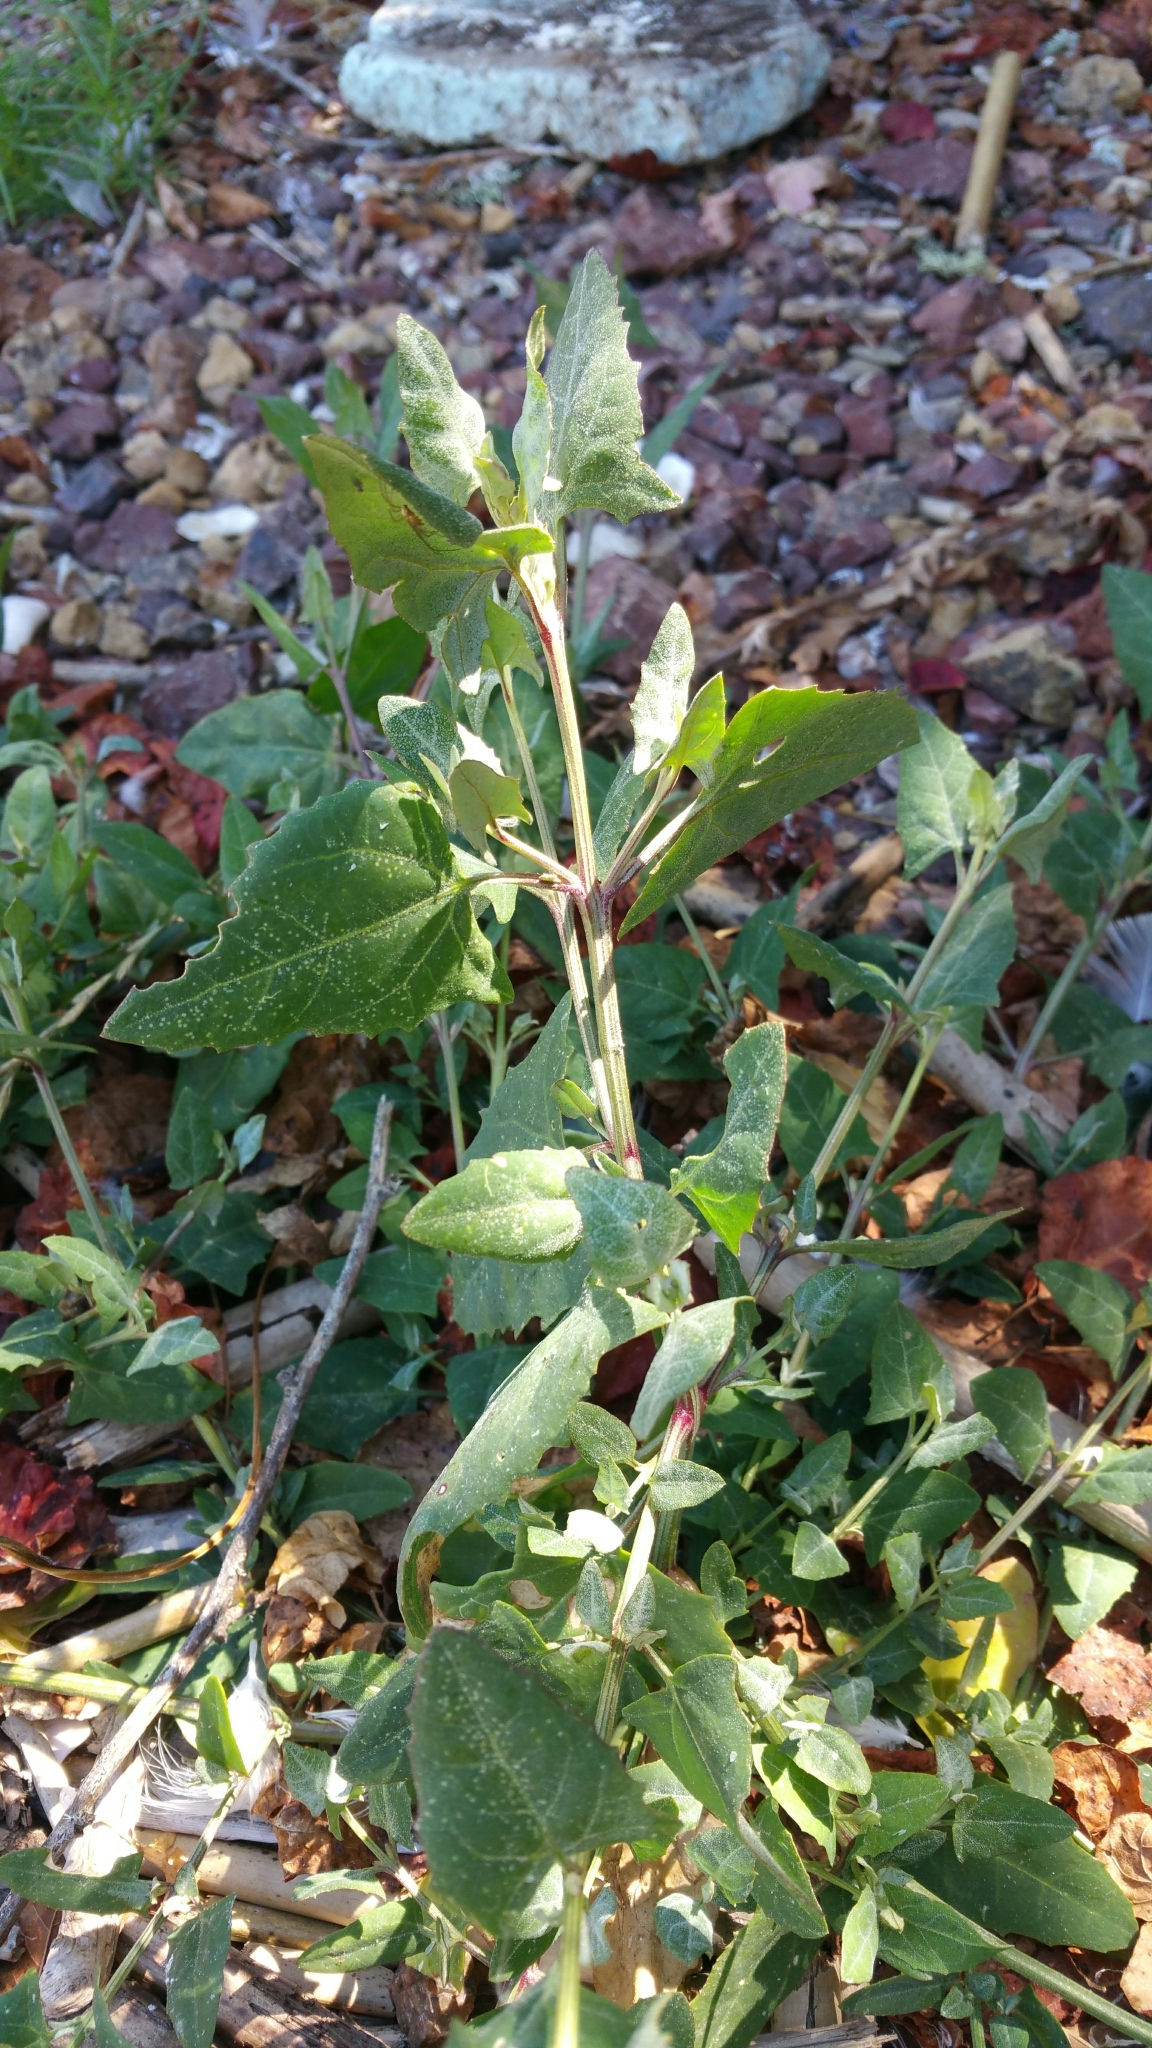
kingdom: Plantae
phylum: Tracheophyta
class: Magnoliopsida
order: Caryophyllales
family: Amaranthaceae
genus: Atriplex
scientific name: Atriplex prostrata
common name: Spear-leaved orache
